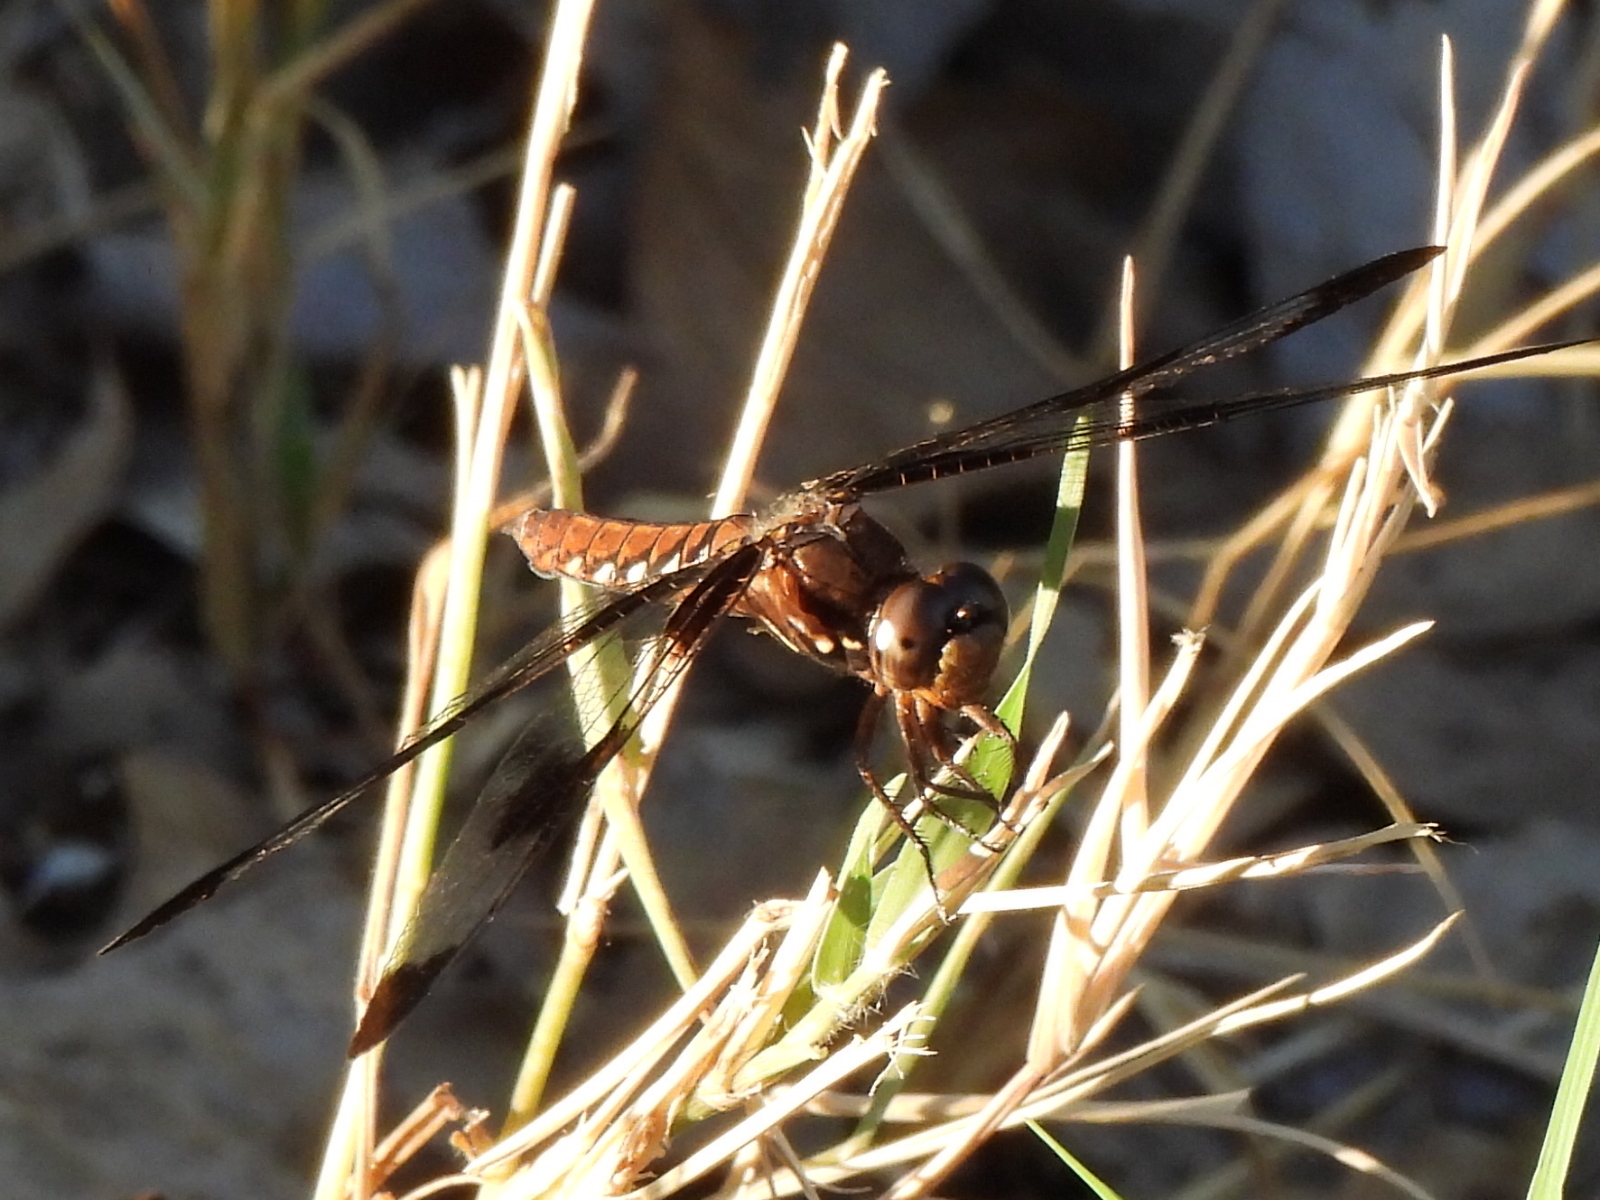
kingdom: Animalia
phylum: Arthropoda
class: Insecta
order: Odonata
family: Libellulidae
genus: Plathemis
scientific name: Plathemis lydia
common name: Common whitetail
